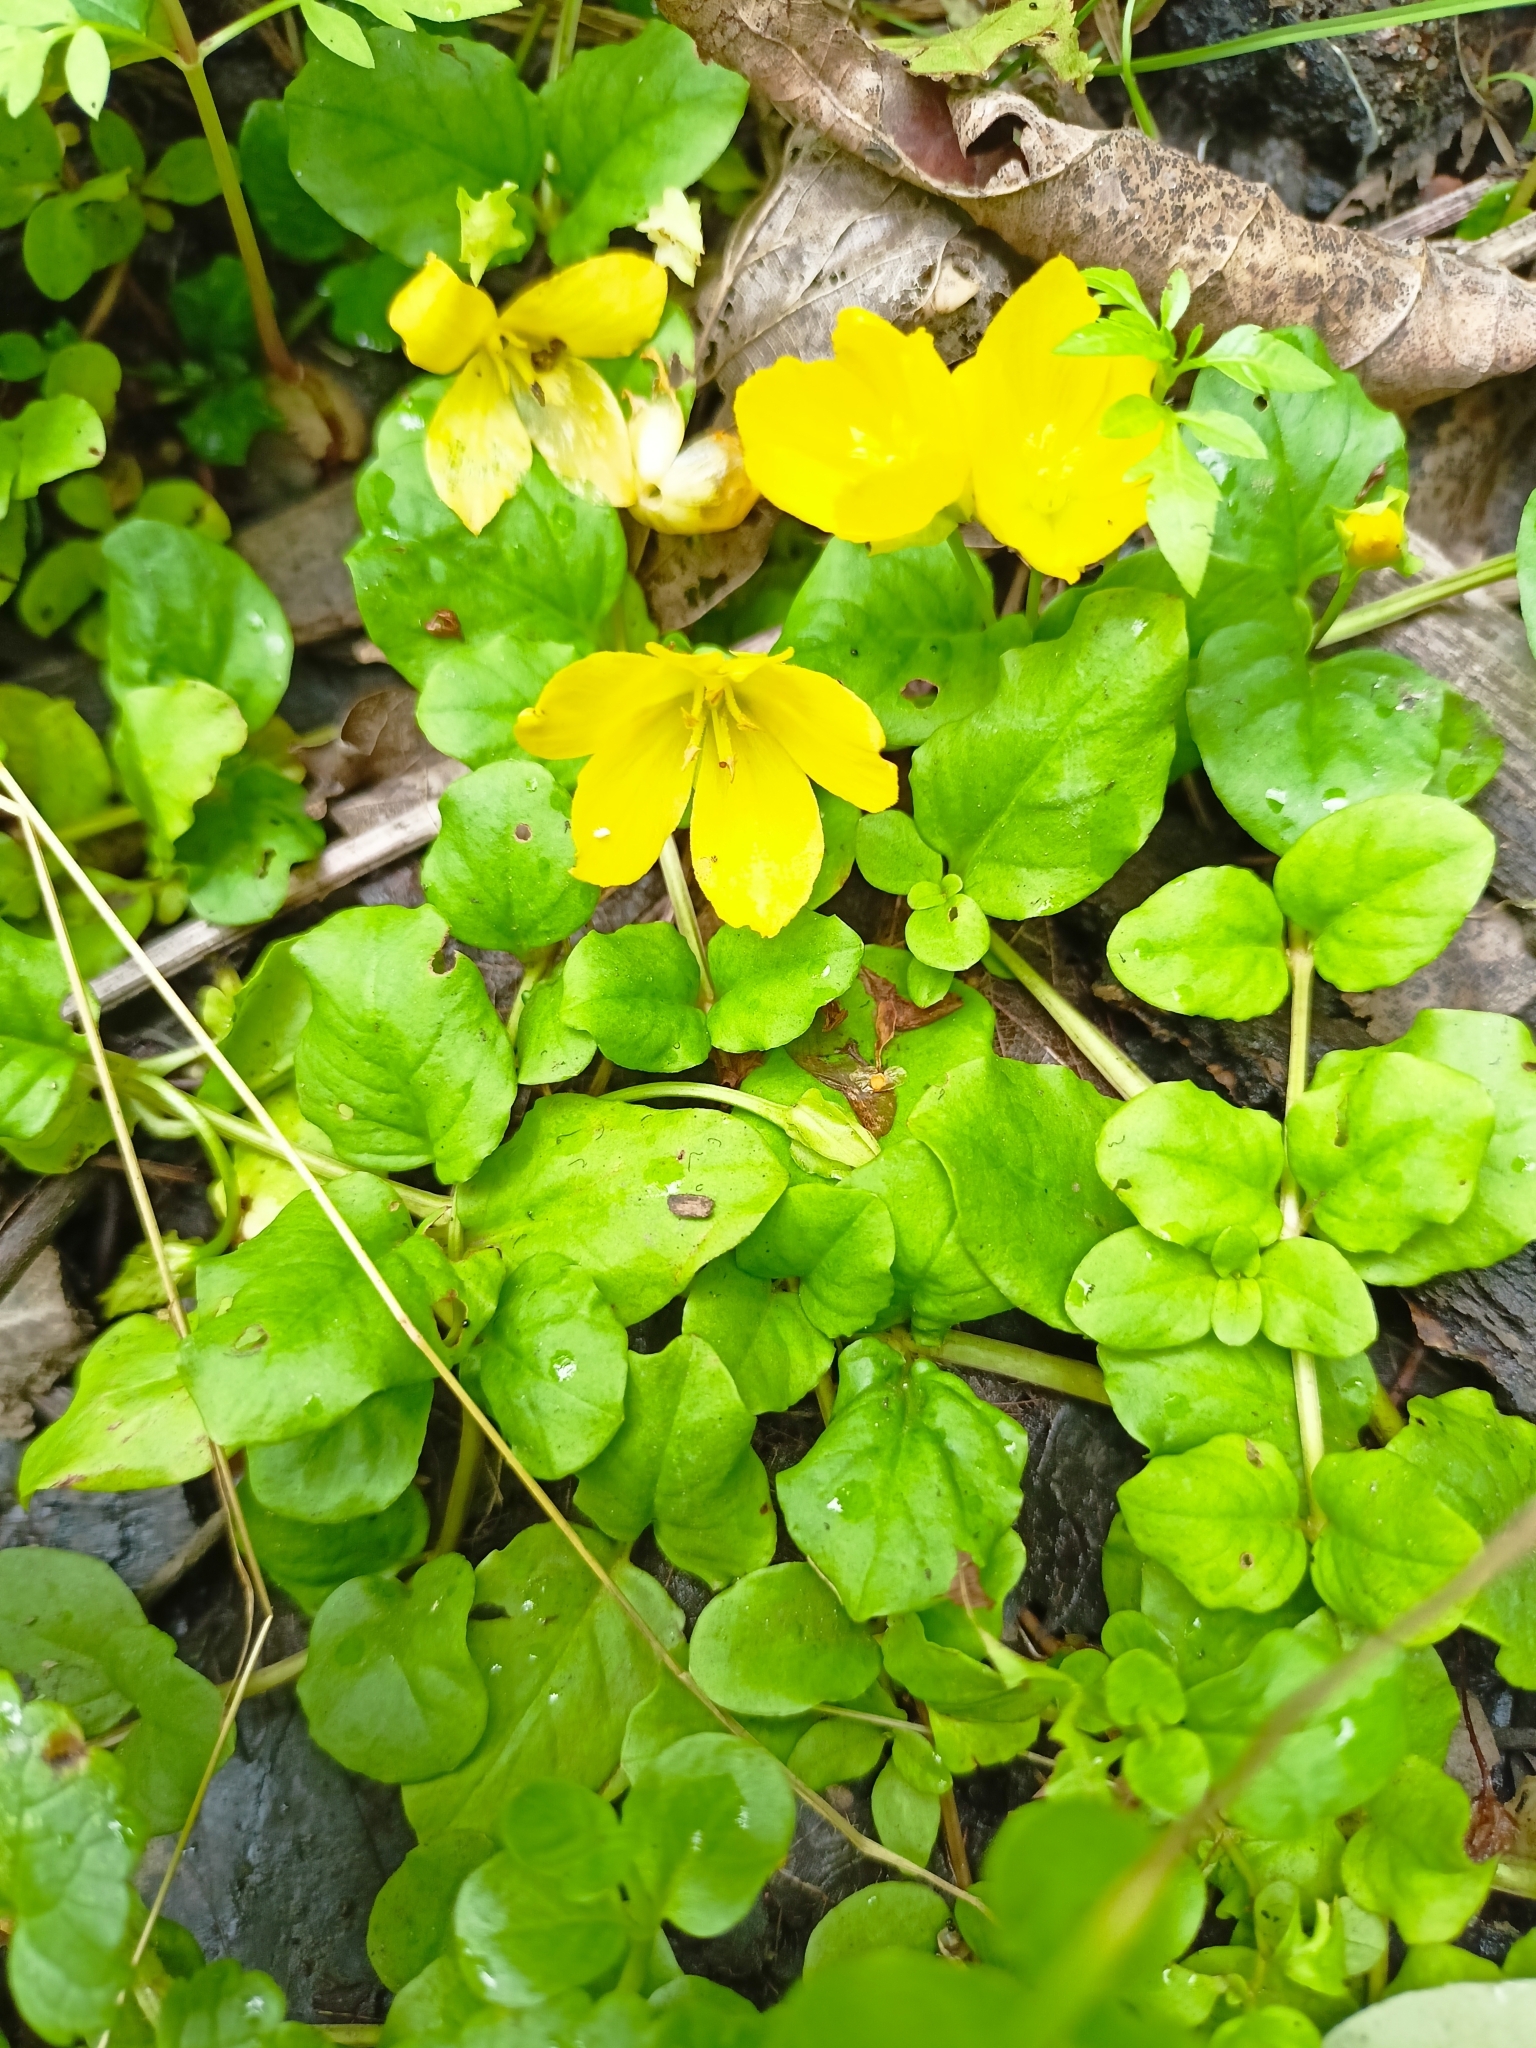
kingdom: Plantae
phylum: Tracheophyta
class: Magnoliopsida
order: Ericales
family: Primulaceae
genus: Lysimachia
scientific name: Lysimachia nummularia
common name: Moneywort
